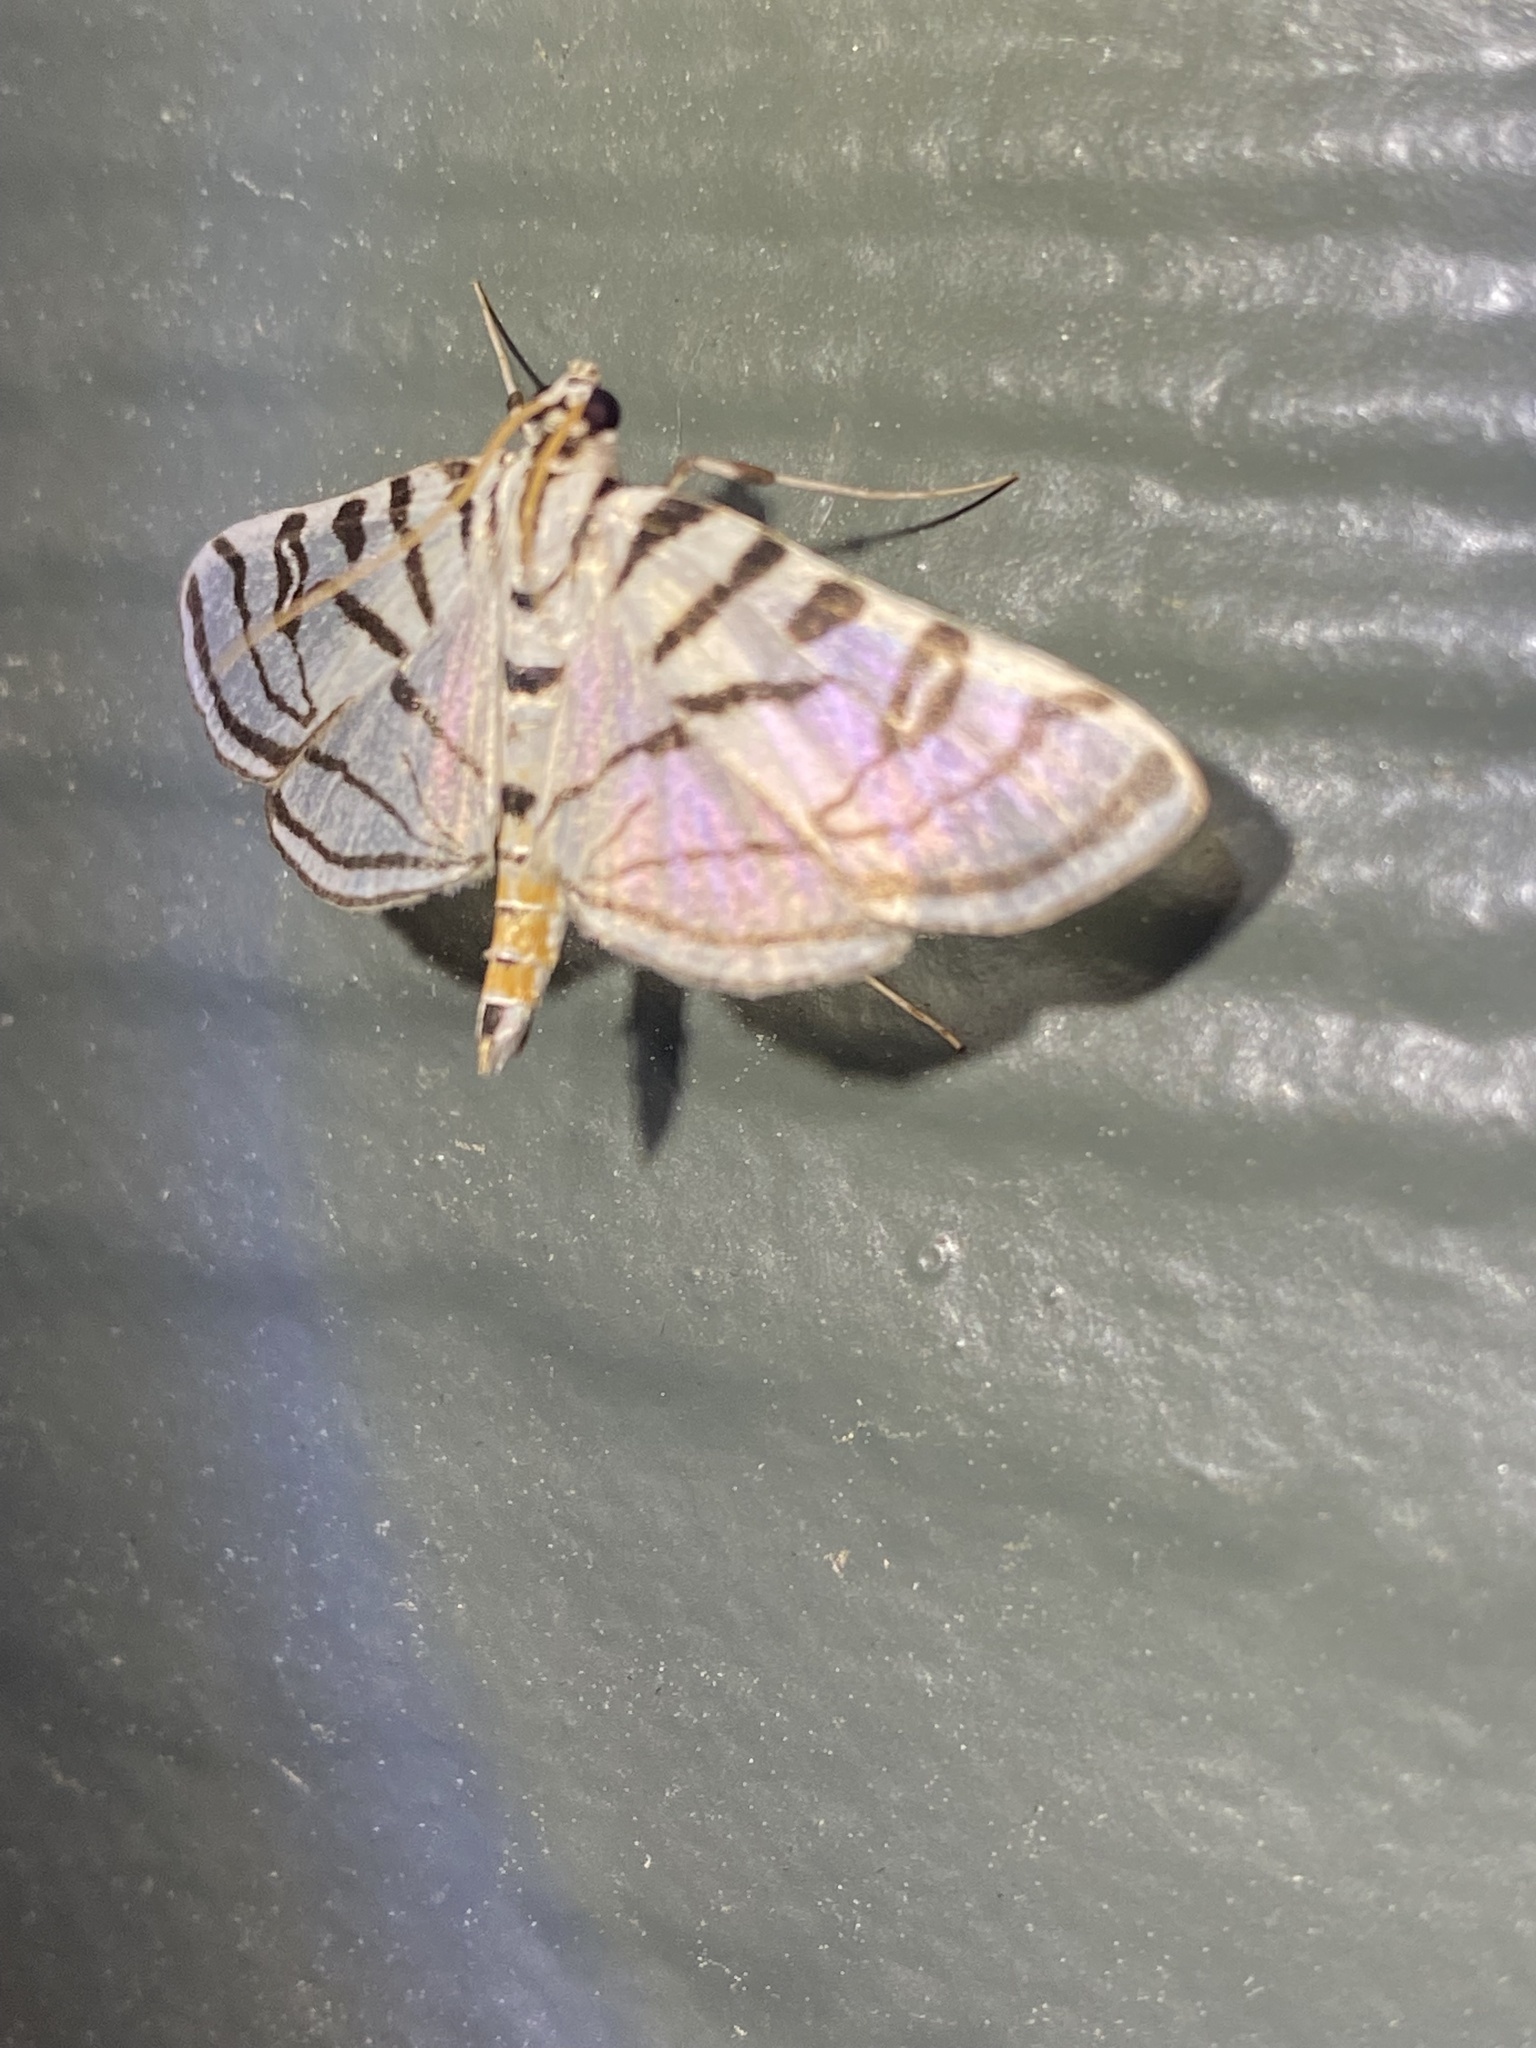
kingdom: Animalia
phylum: Arthropoda
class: Insecta
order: Lepidoptera
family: Crambidae
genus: Conchylodes
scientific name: Conchylodes ovulalis
